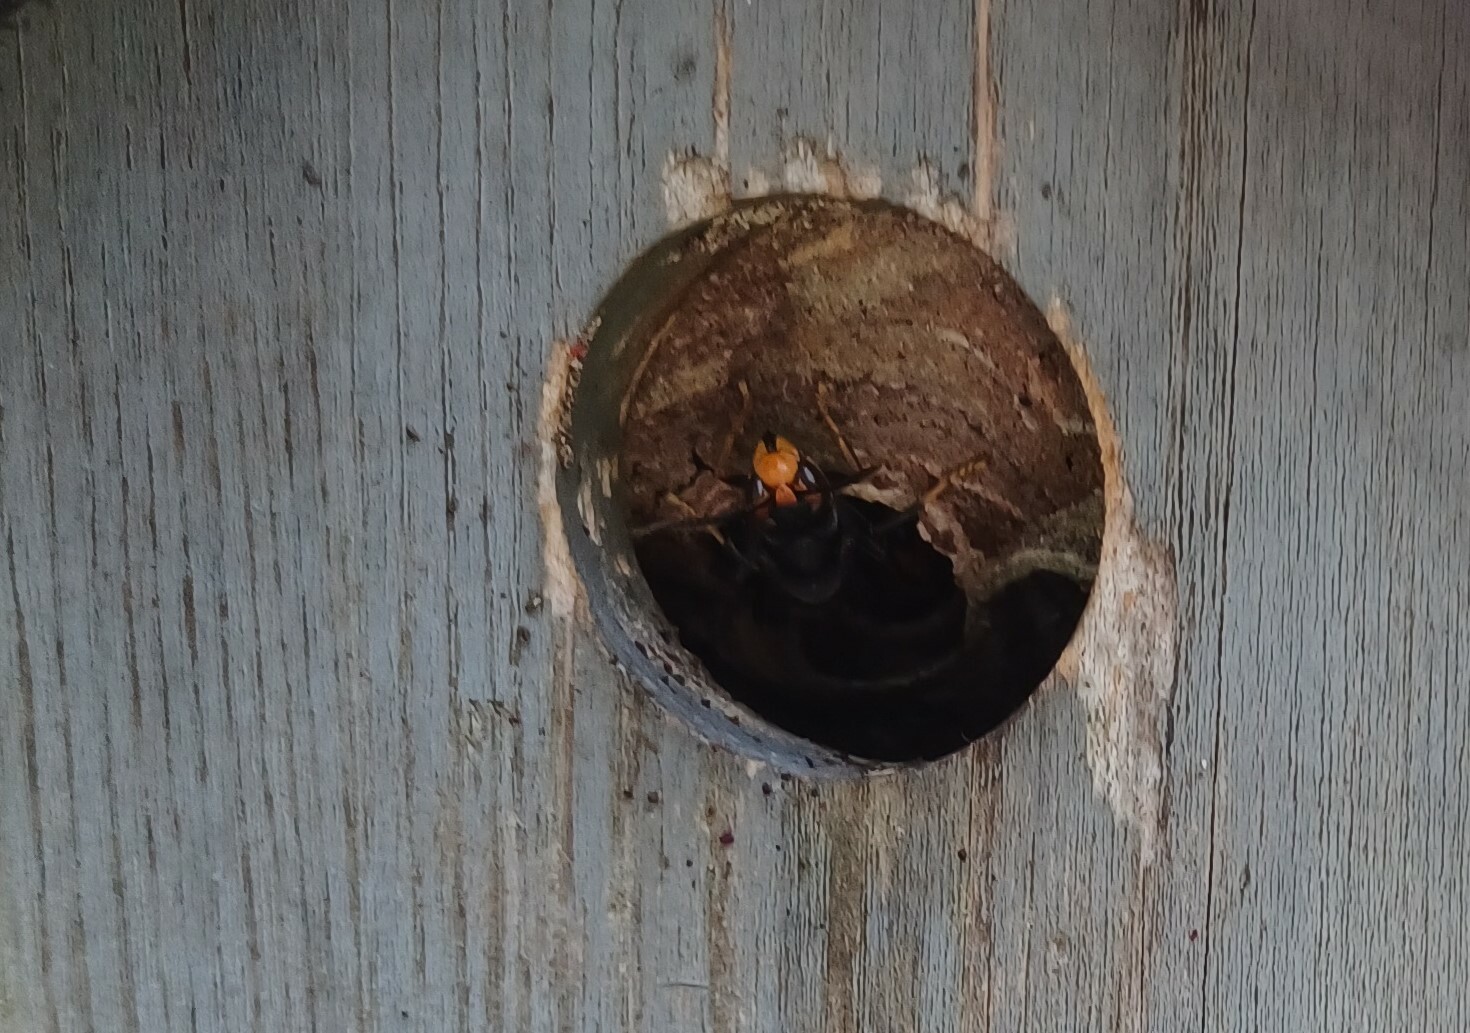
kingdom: Animalia
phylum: Arthropoda
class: Insecta
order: Hymenoptera
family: Vespidae
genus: Vespa
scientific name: Vespa velutina
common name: Asian hornet
